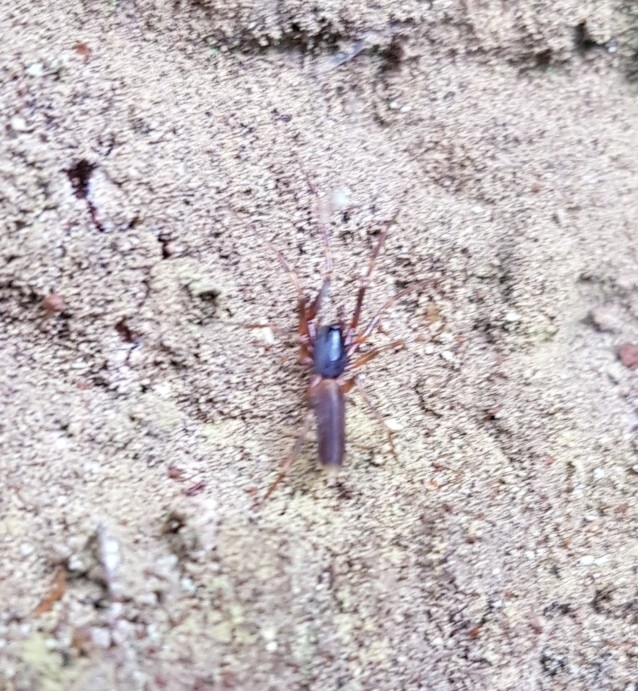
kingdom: Animalia
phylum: Arthropoda
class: Arachnida
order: Araneae
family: Dysderidae
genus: Harpactea
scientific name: Harpactea hombergi
